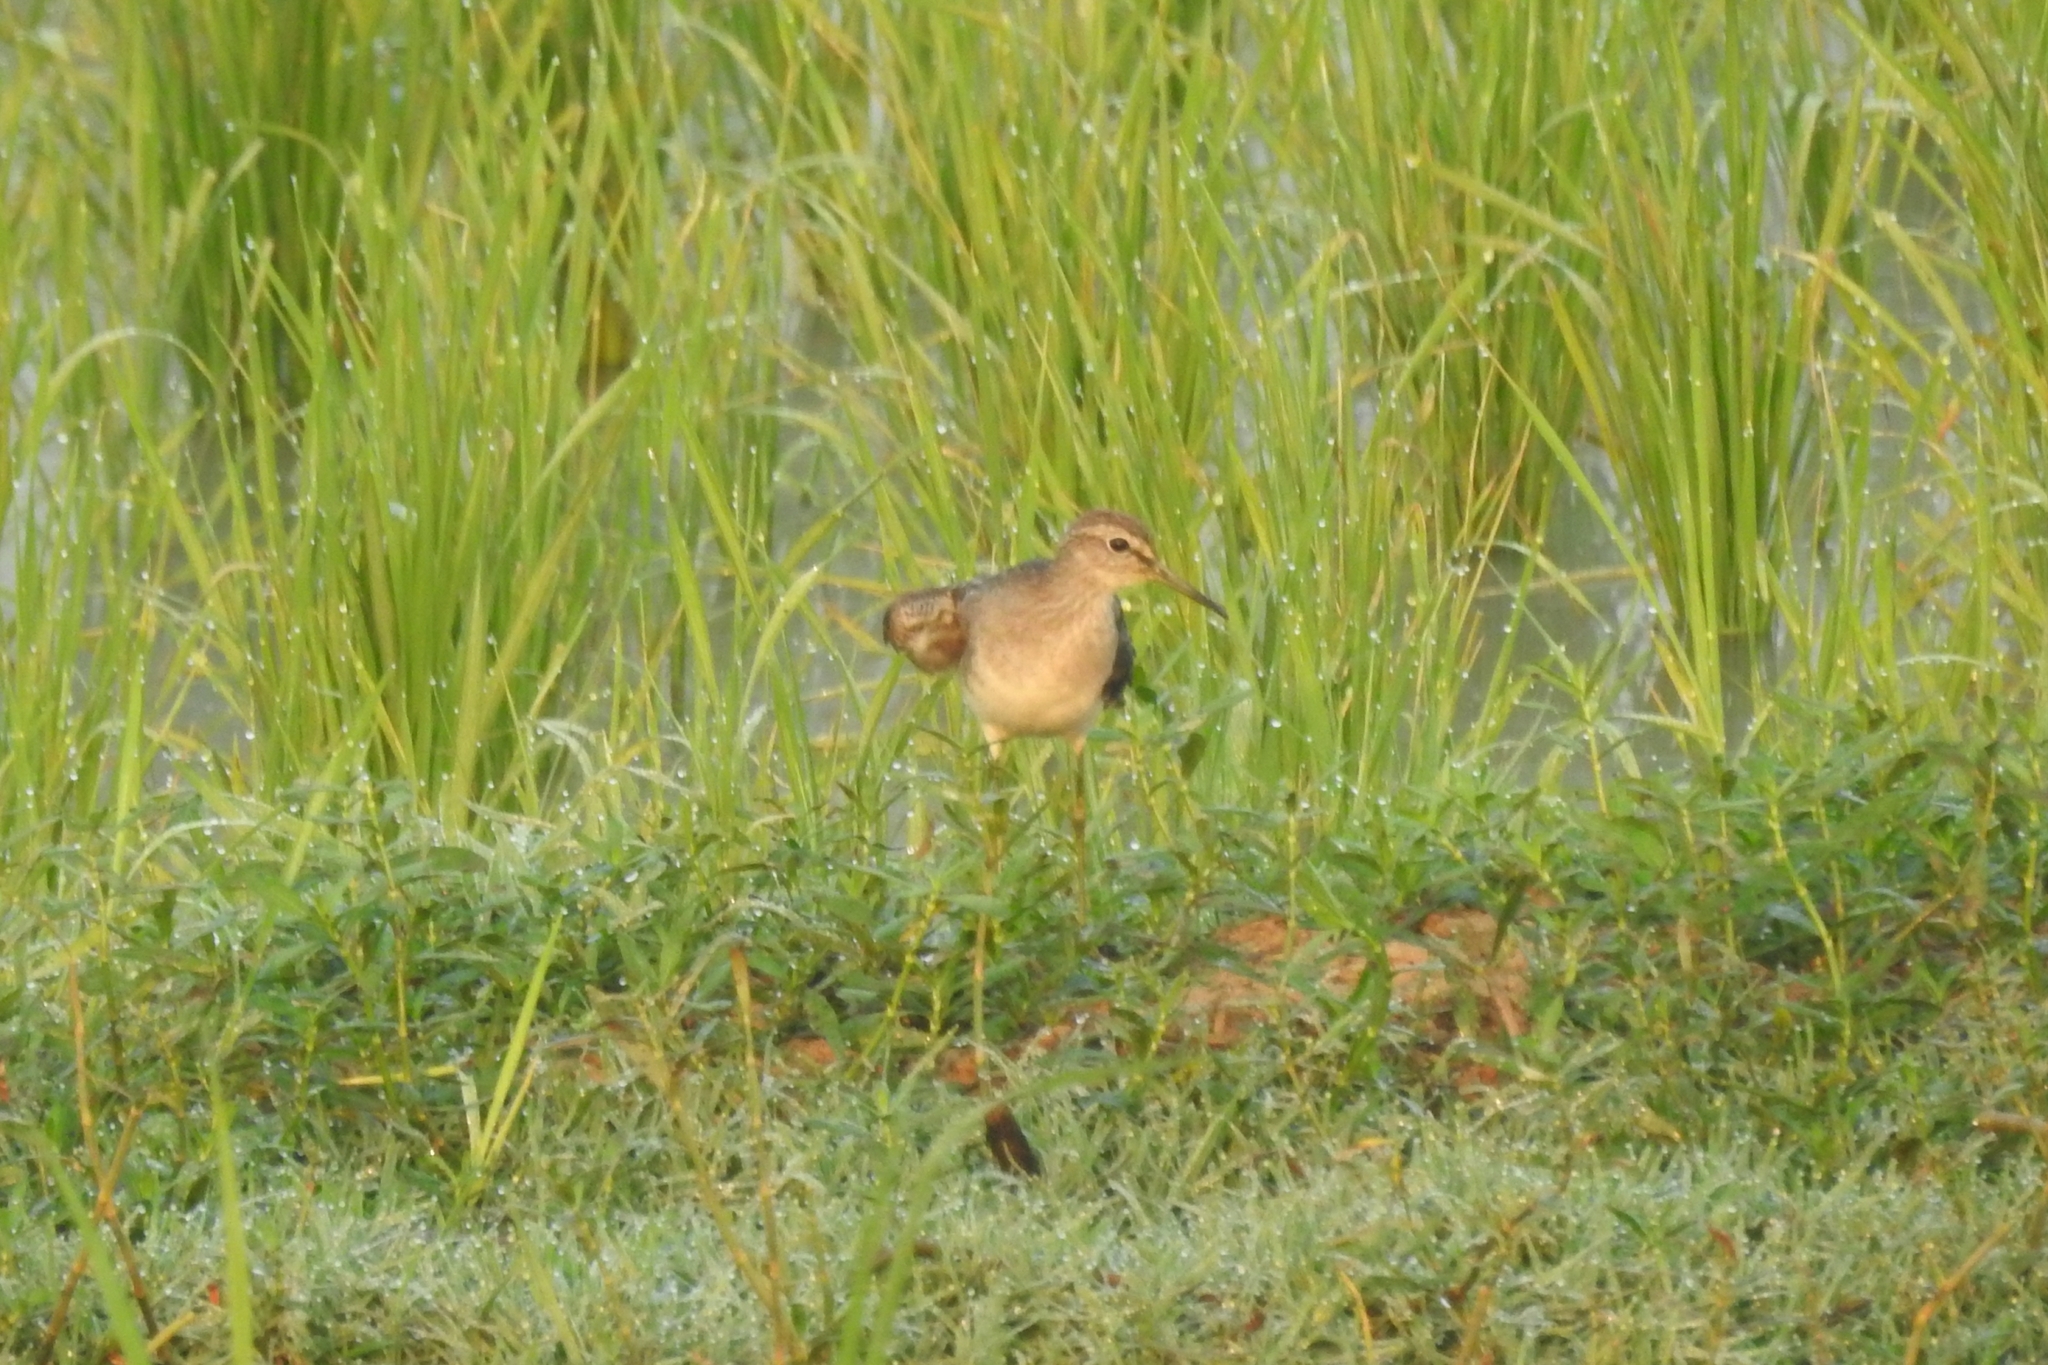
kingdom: Animalia
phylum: Chordata
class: Aves
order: Charadriiformes
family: Scolopacidae
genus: Tringa
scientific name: Tringa glareola
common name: Wood sandpiper
